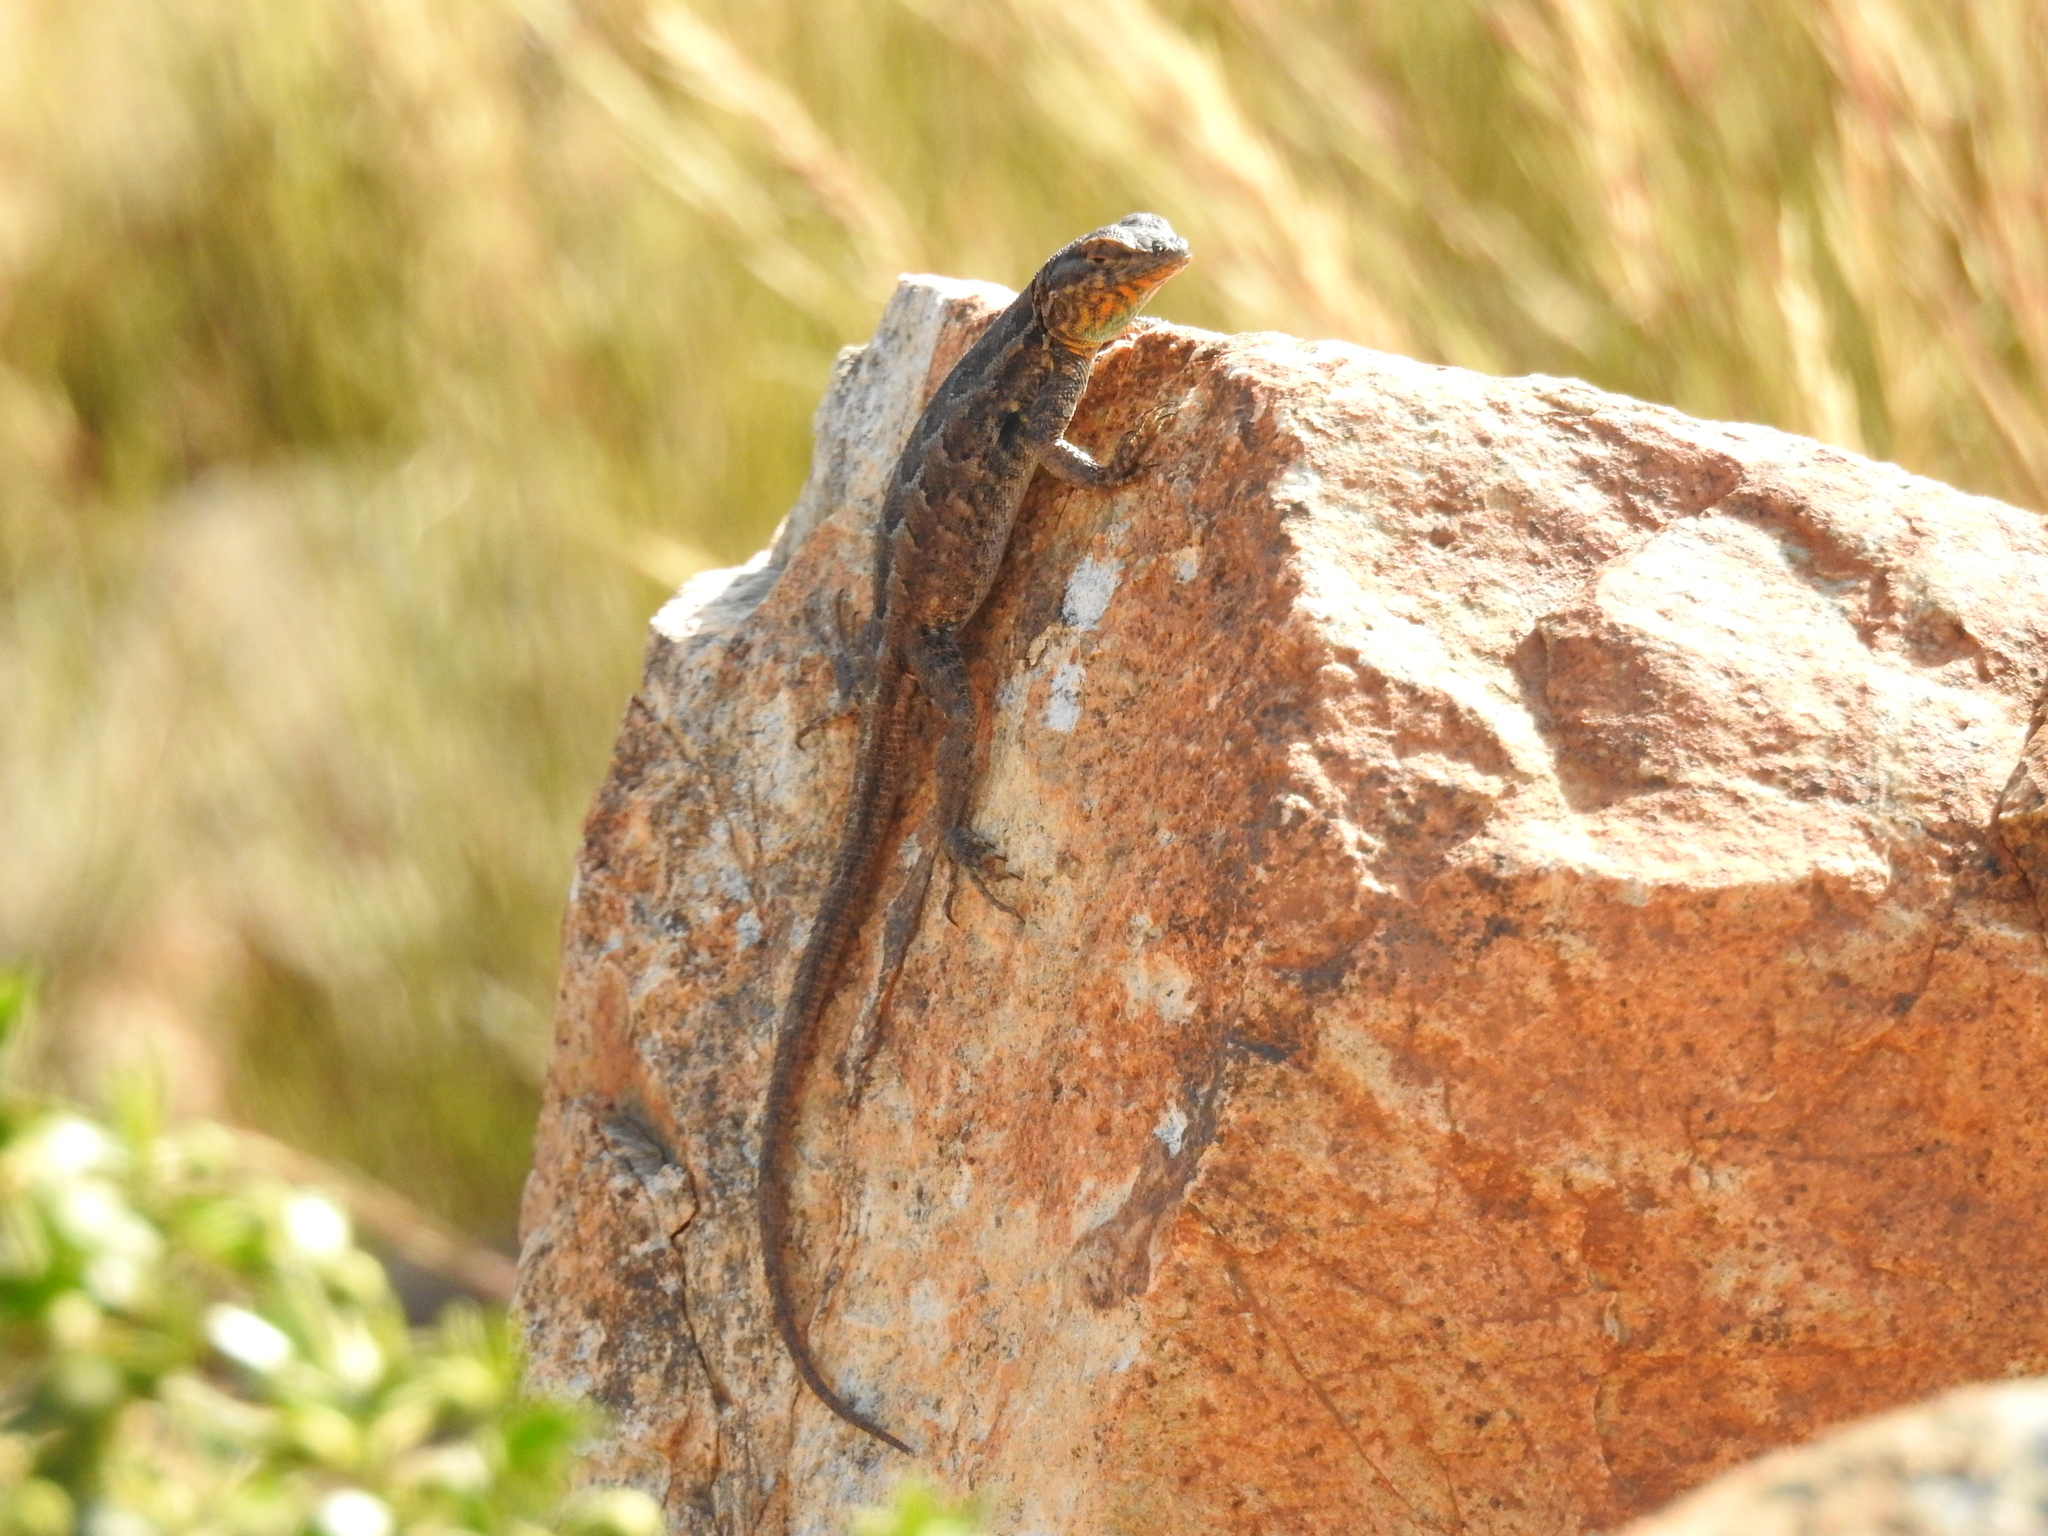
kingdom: Animalia
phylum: Chordata
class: Squamata
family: Phrynosomatidae
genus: Uta
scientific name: Uta stansburiana
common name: Side-blotched lizard
